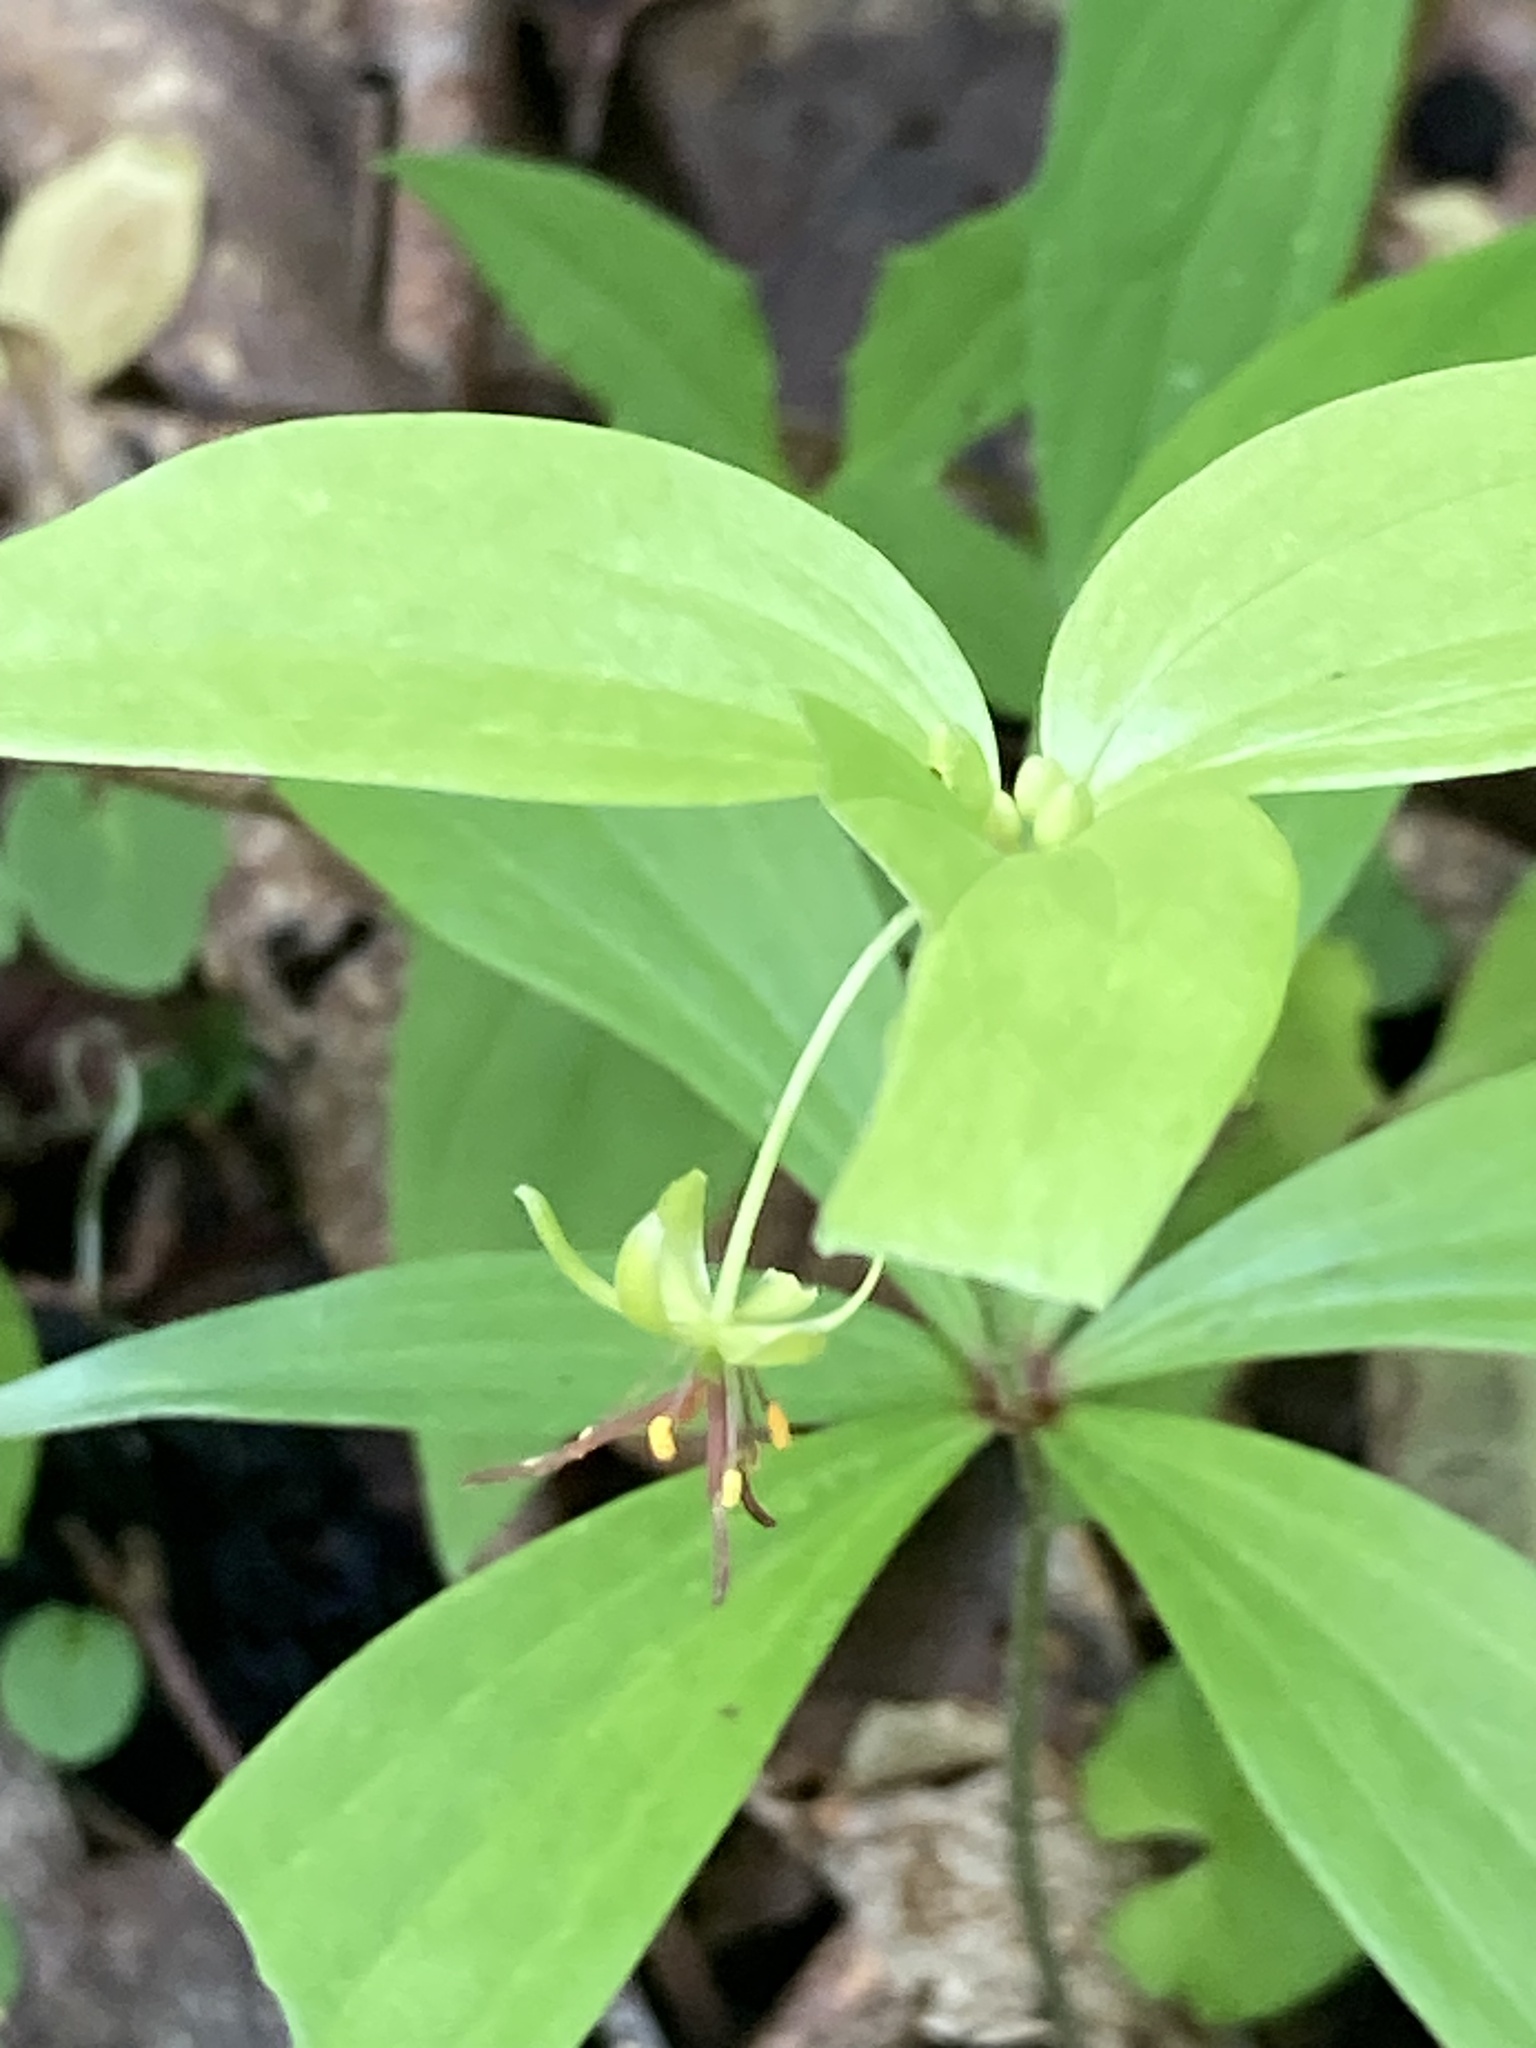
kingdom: Plantae
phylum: Tracheophyta
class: Liliopsida
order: Liliales
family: Liliaceae
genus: Medeola
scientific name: Medeola virginiana
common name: Indian cucumber-root
